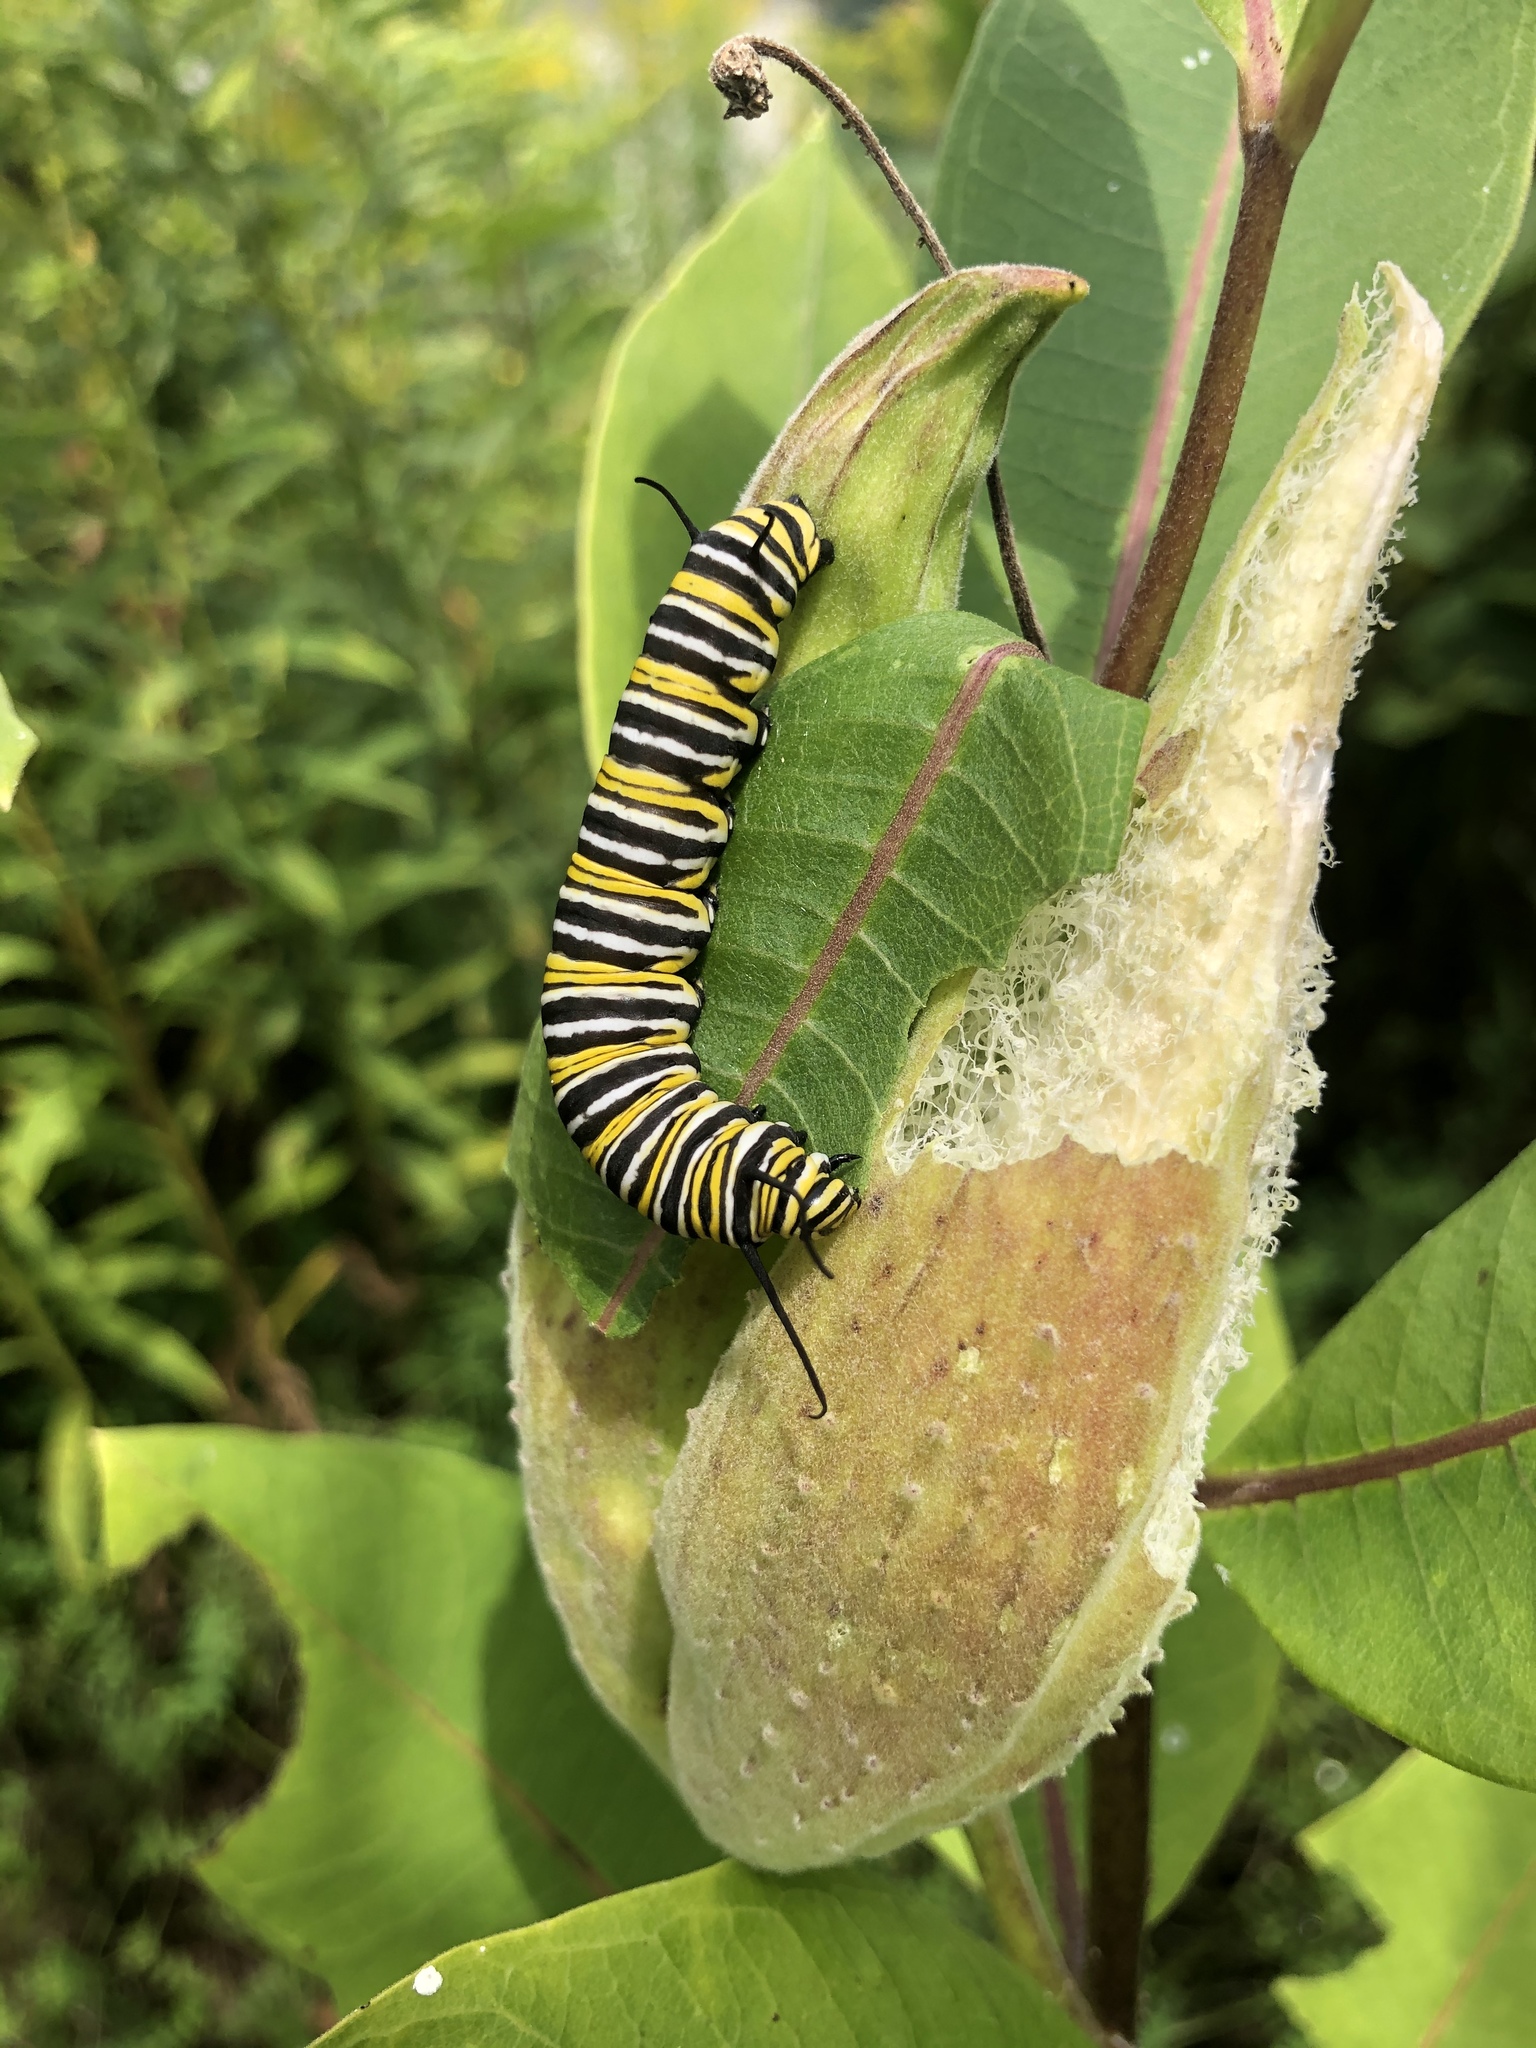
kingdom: Animalia
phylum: Arthropoda
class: Insecta
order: Lepidoptera
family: Nymphalidae
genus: Danaus
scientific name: Danaus plexippus
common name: Monarch
